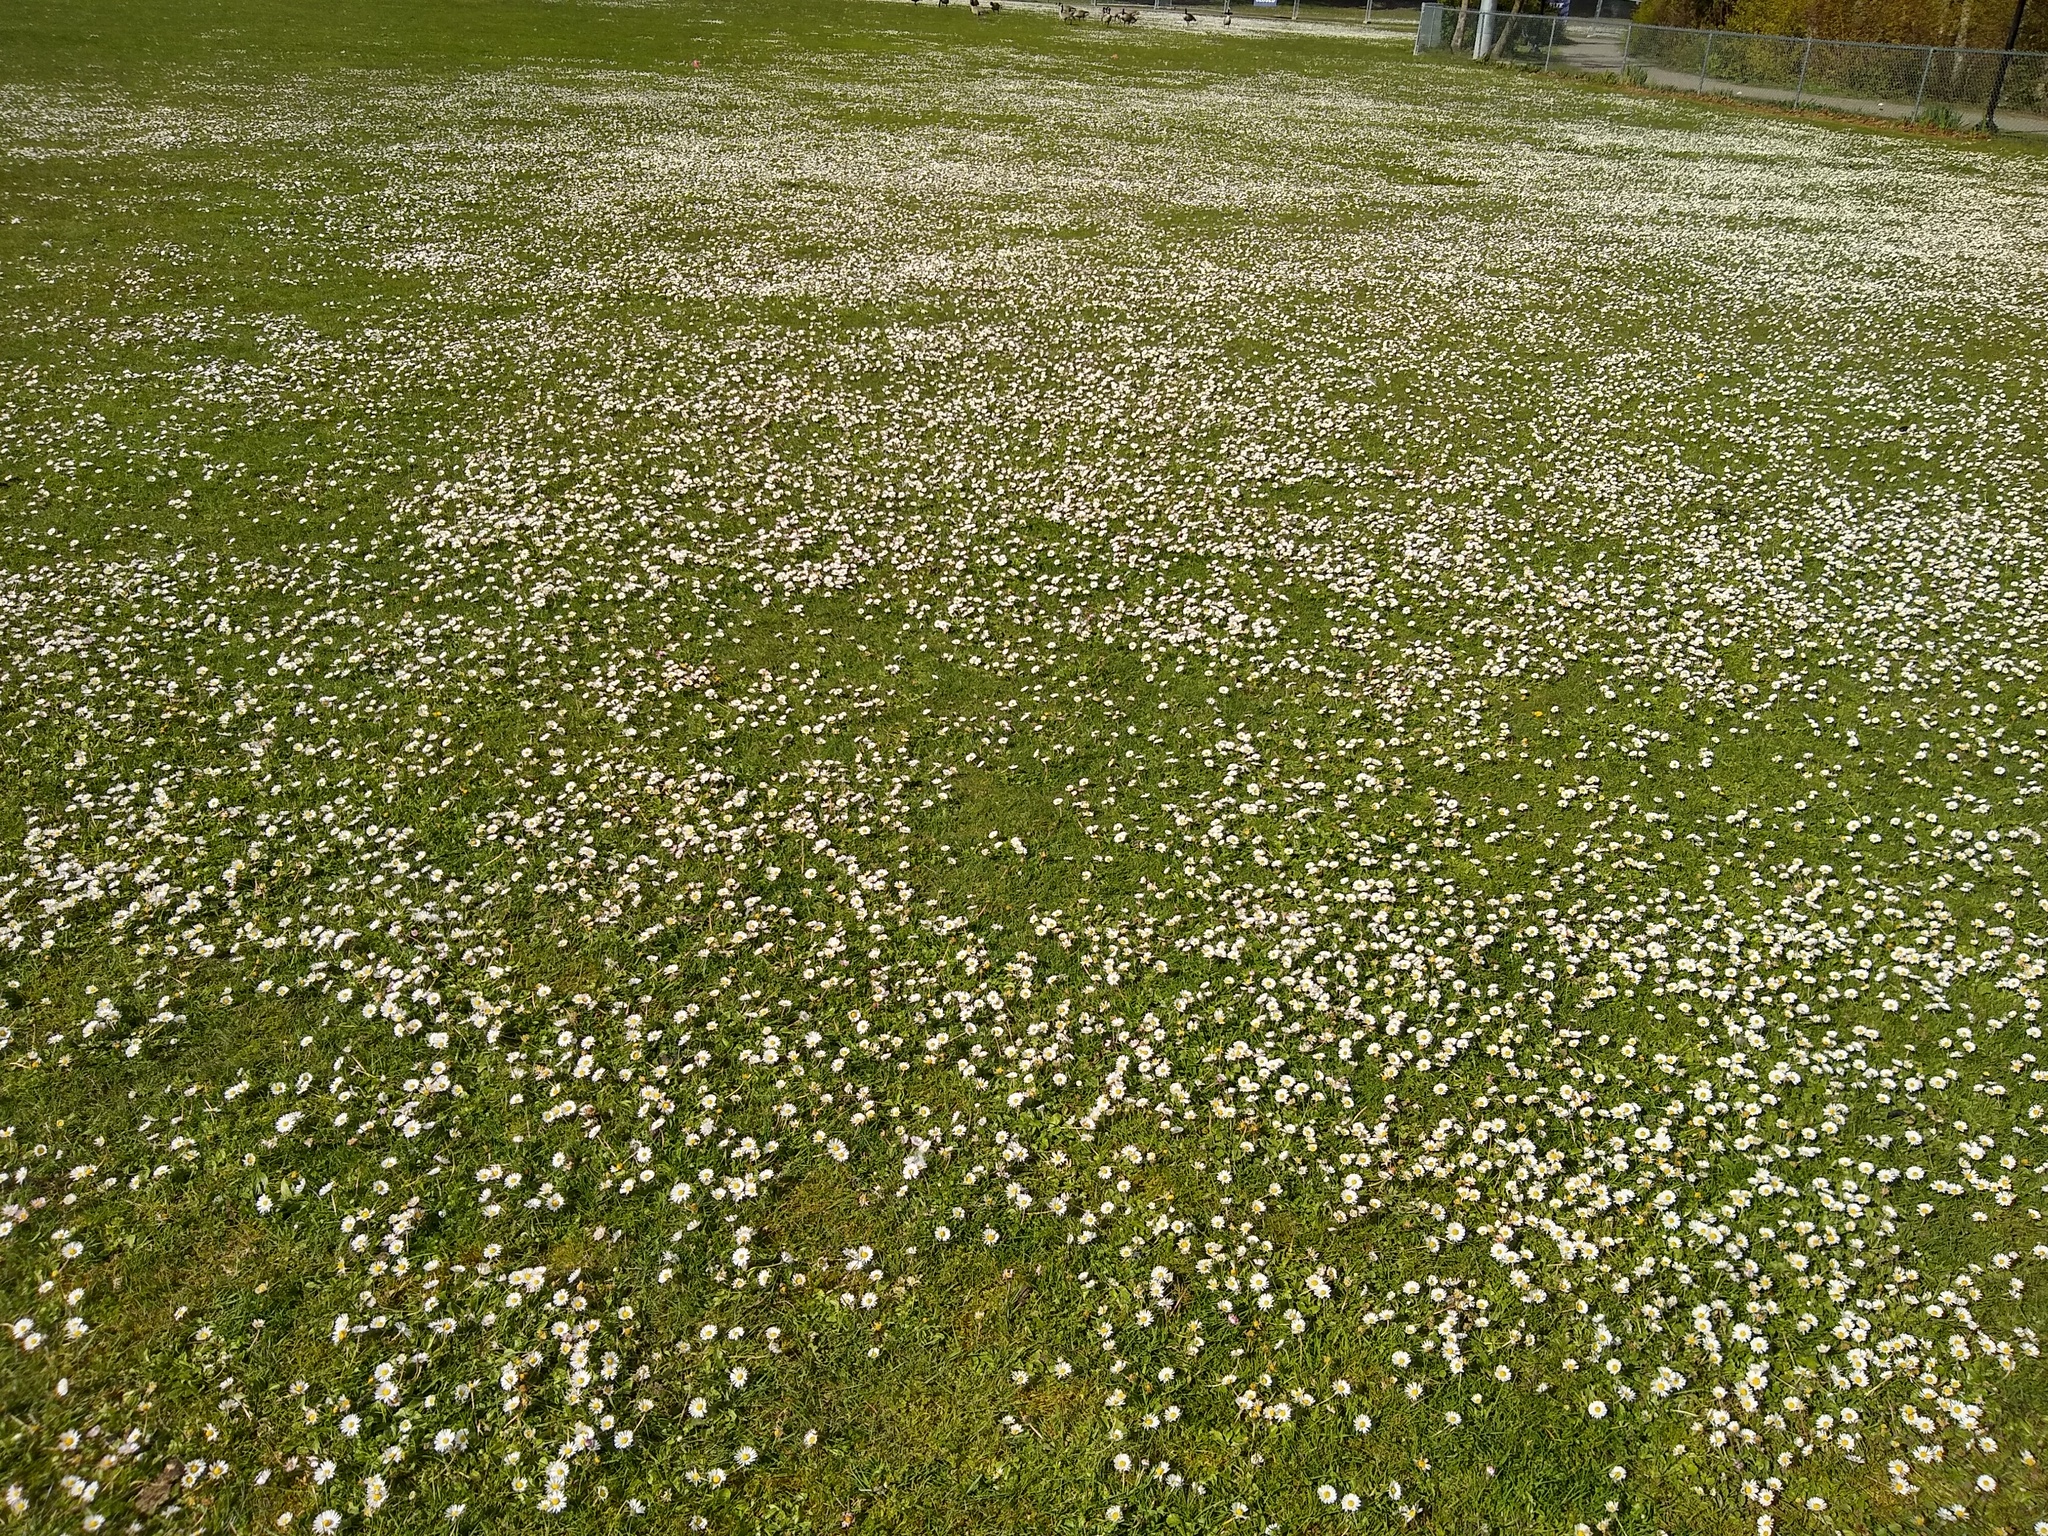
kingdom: Plantae
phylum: Tracheophyta
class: Magnoliopsida
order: Asterales
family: Asteraceae
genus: Bellis
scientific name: Bellis perennis
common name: Lawndaisy
